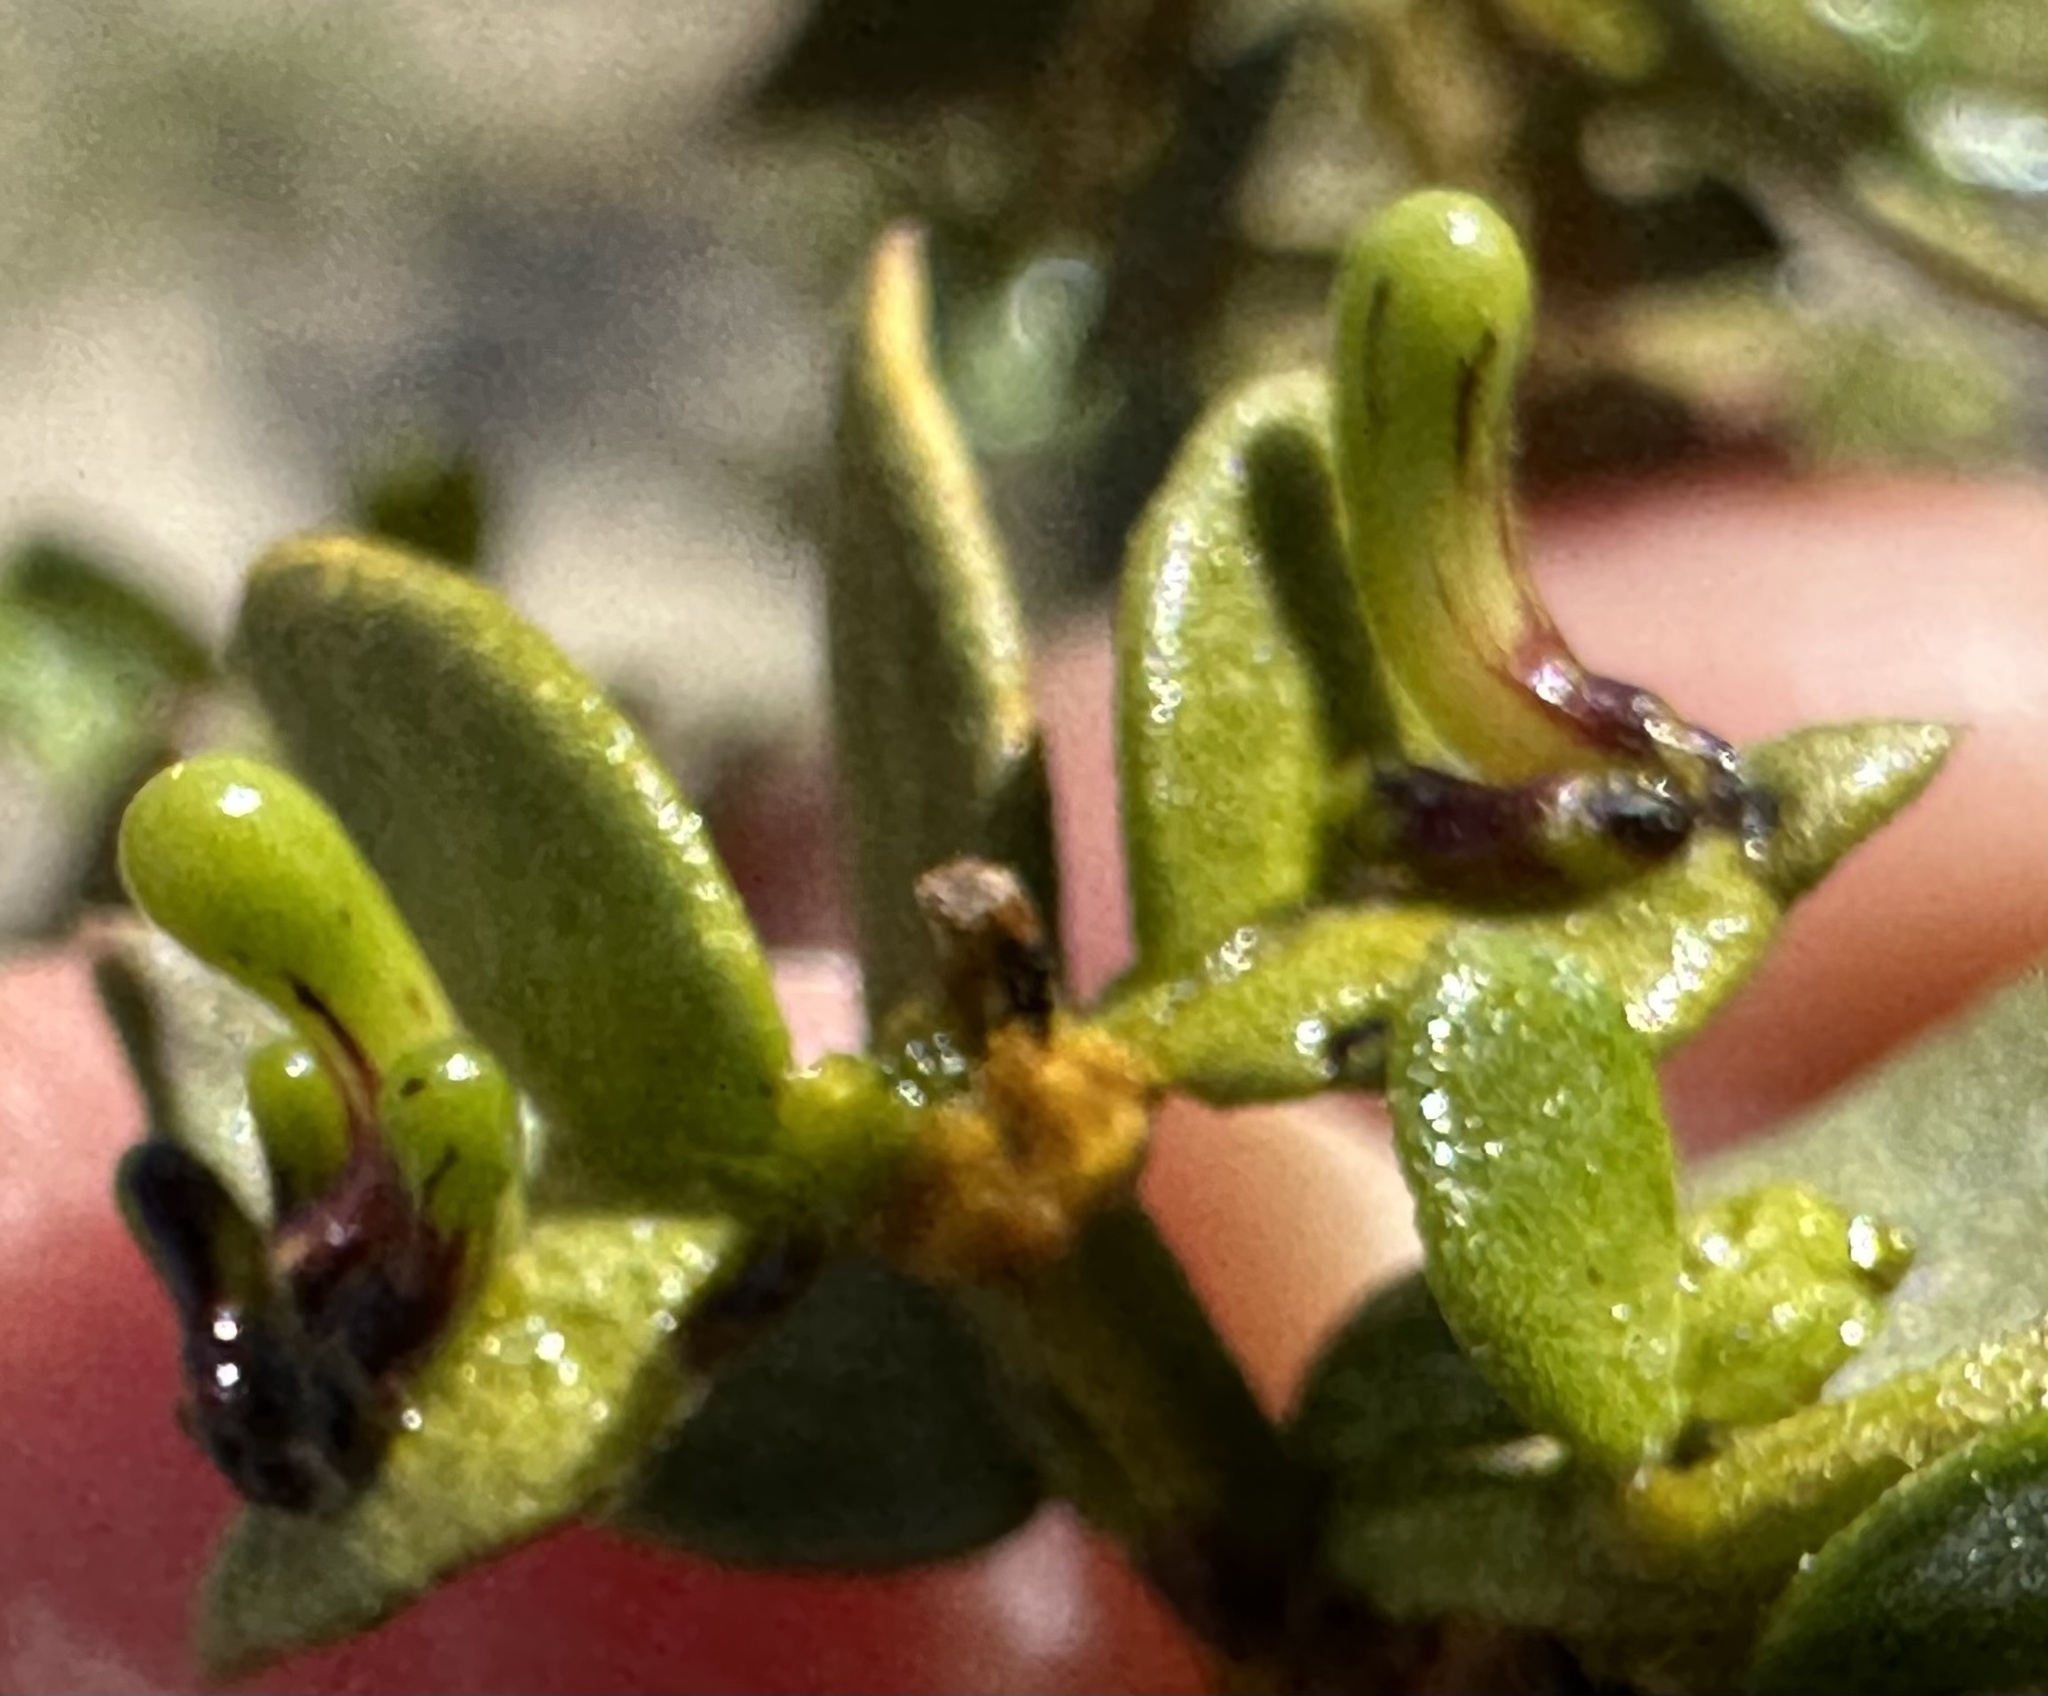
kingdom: Animalia
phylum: Arthropoda
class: Insecta
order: Diptera
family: Cecidomyiidae
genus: Asphondylia
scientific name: Asphondylia clavata
